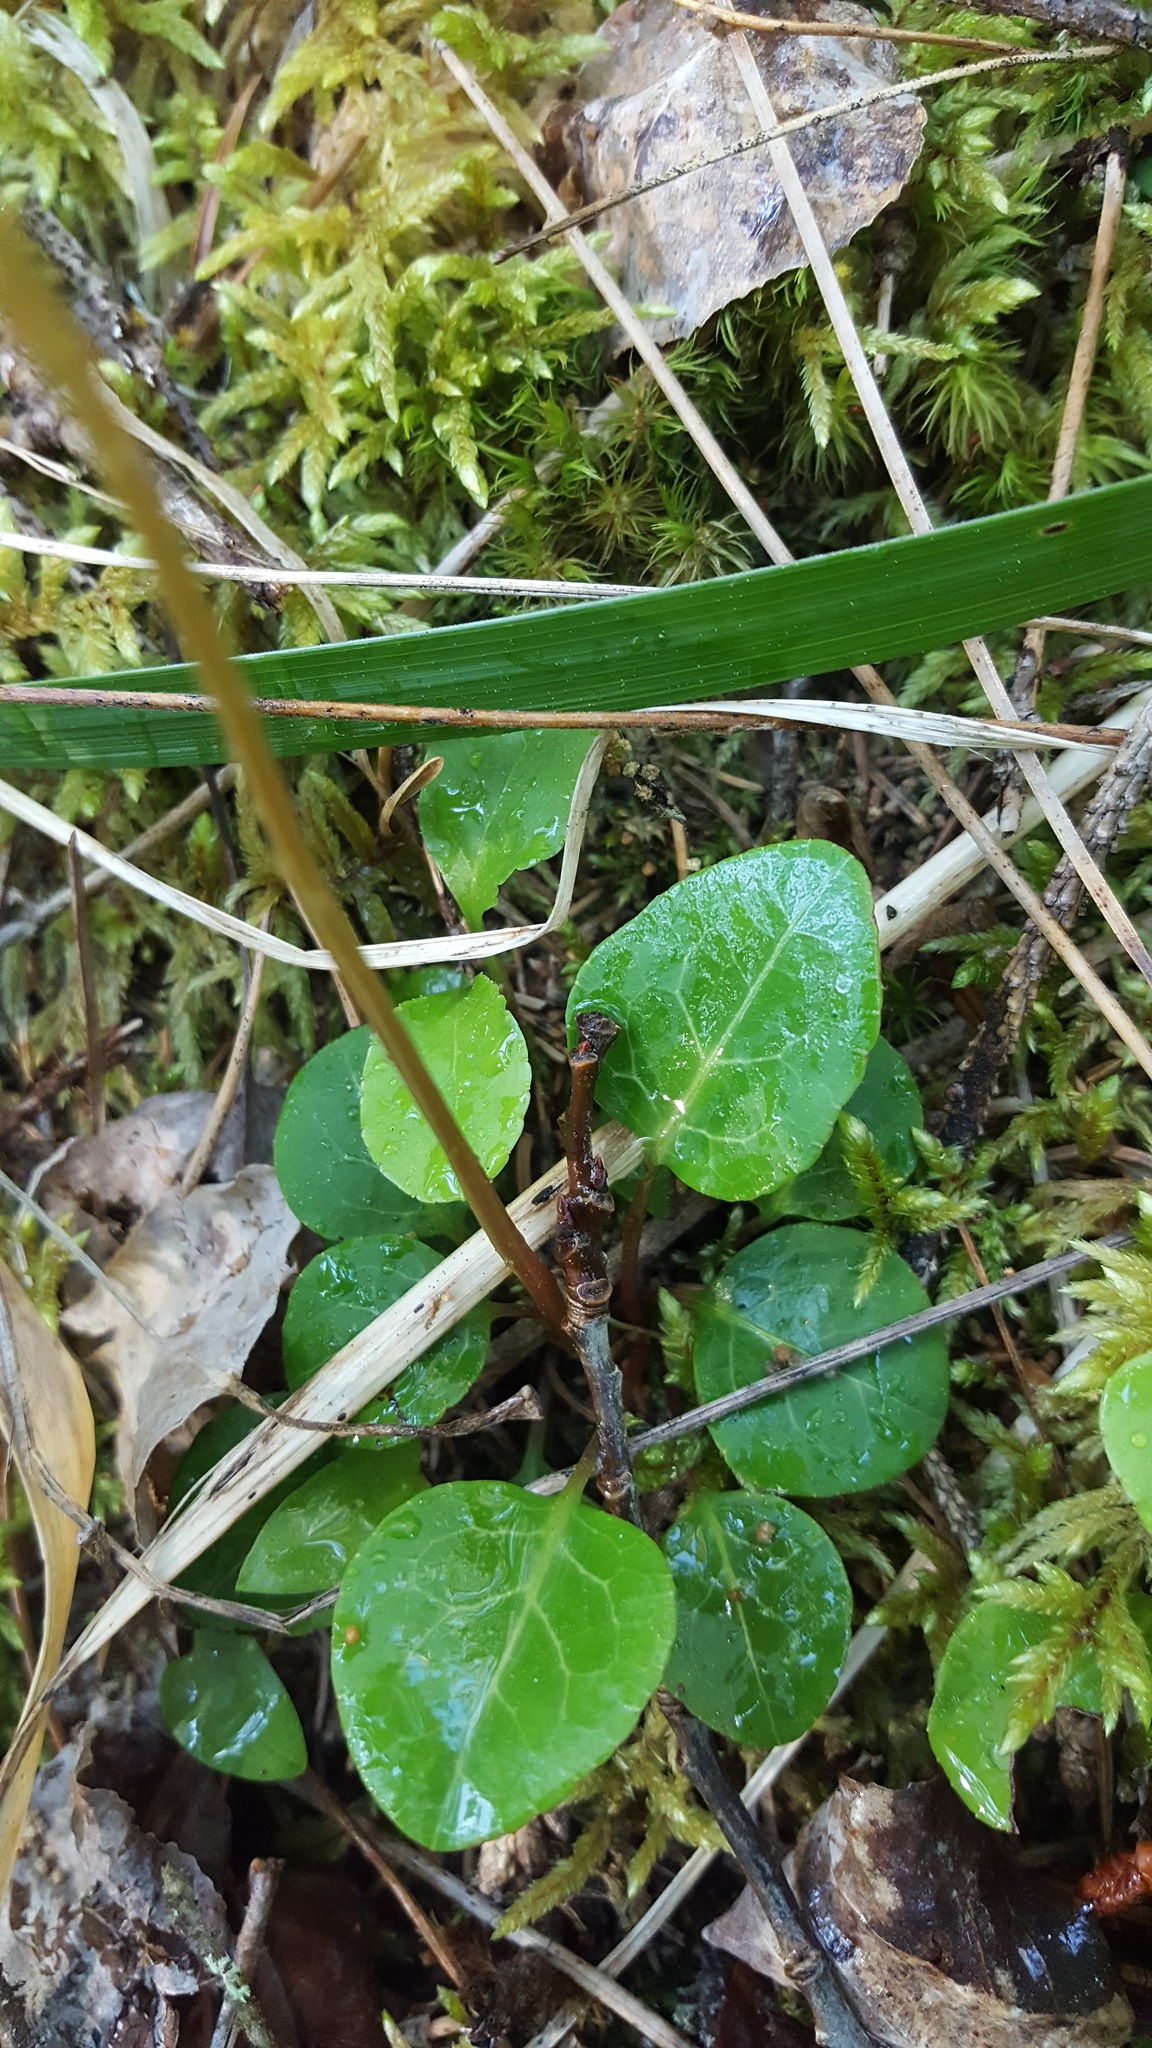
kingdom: Plantae
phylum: Tracheophyta
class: Magnoliopsida
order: Ericales
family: Ericaceae
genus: Pyrola
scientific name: Pyrola chlorantha
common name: Green wintergreen
